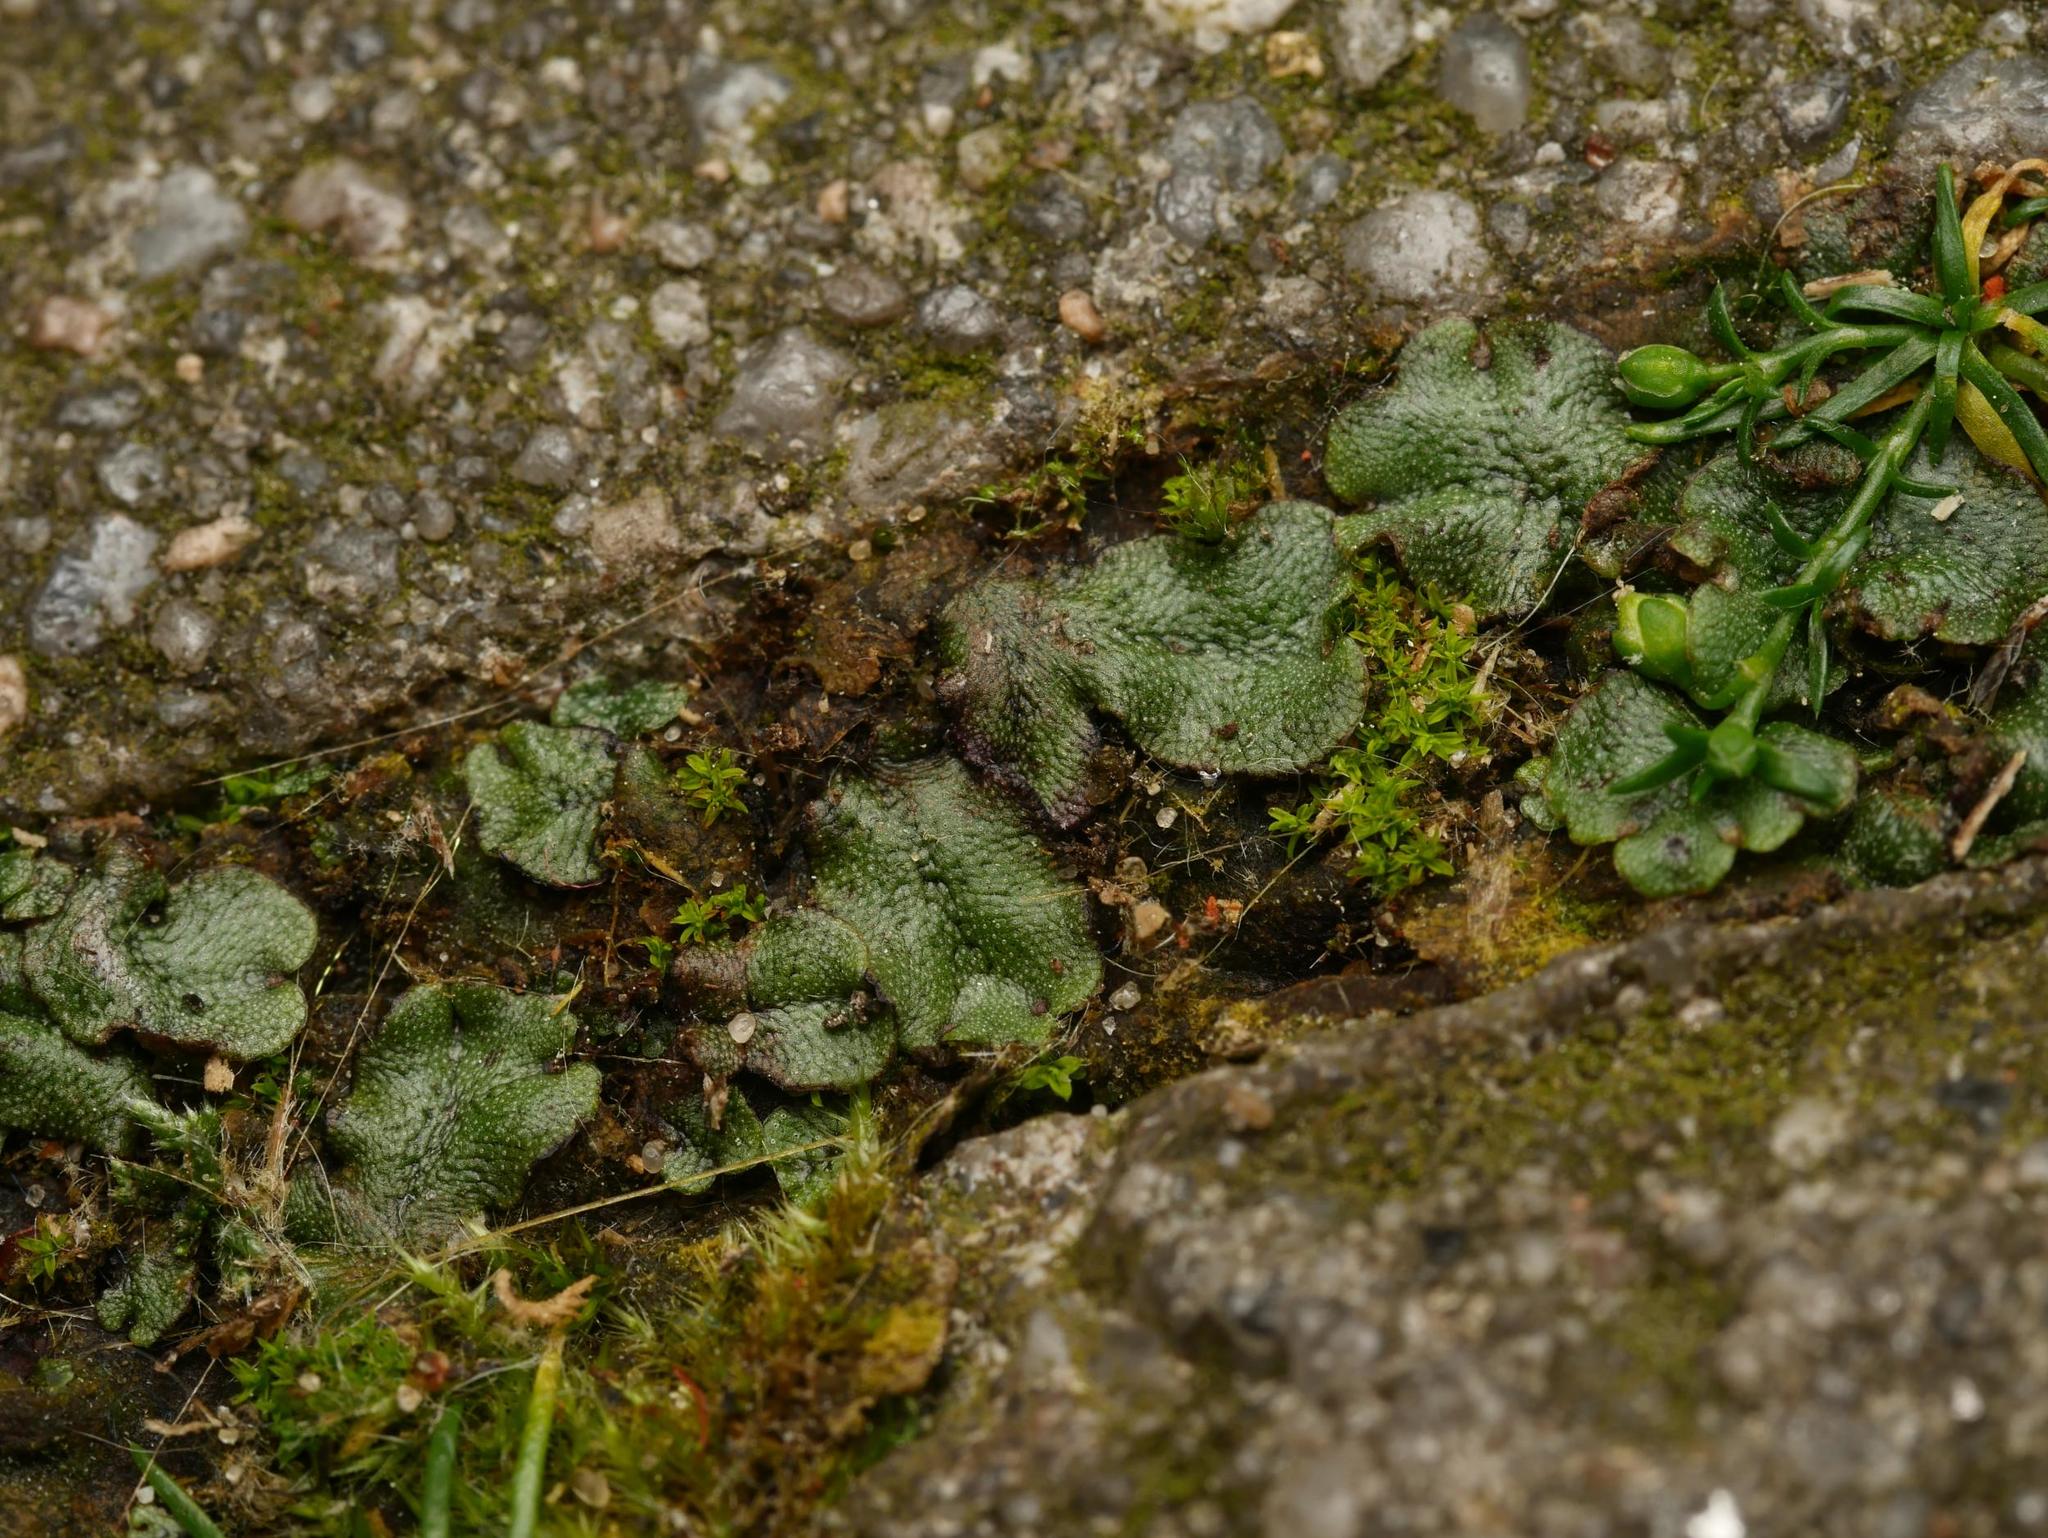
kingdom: Plantae
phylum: Marchantiophyta
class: Marchantiopsida
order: Marchantiales
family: Marchantiaceae
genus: Marchantia
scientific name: Marchantia polymorpha
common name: Common liverwort
